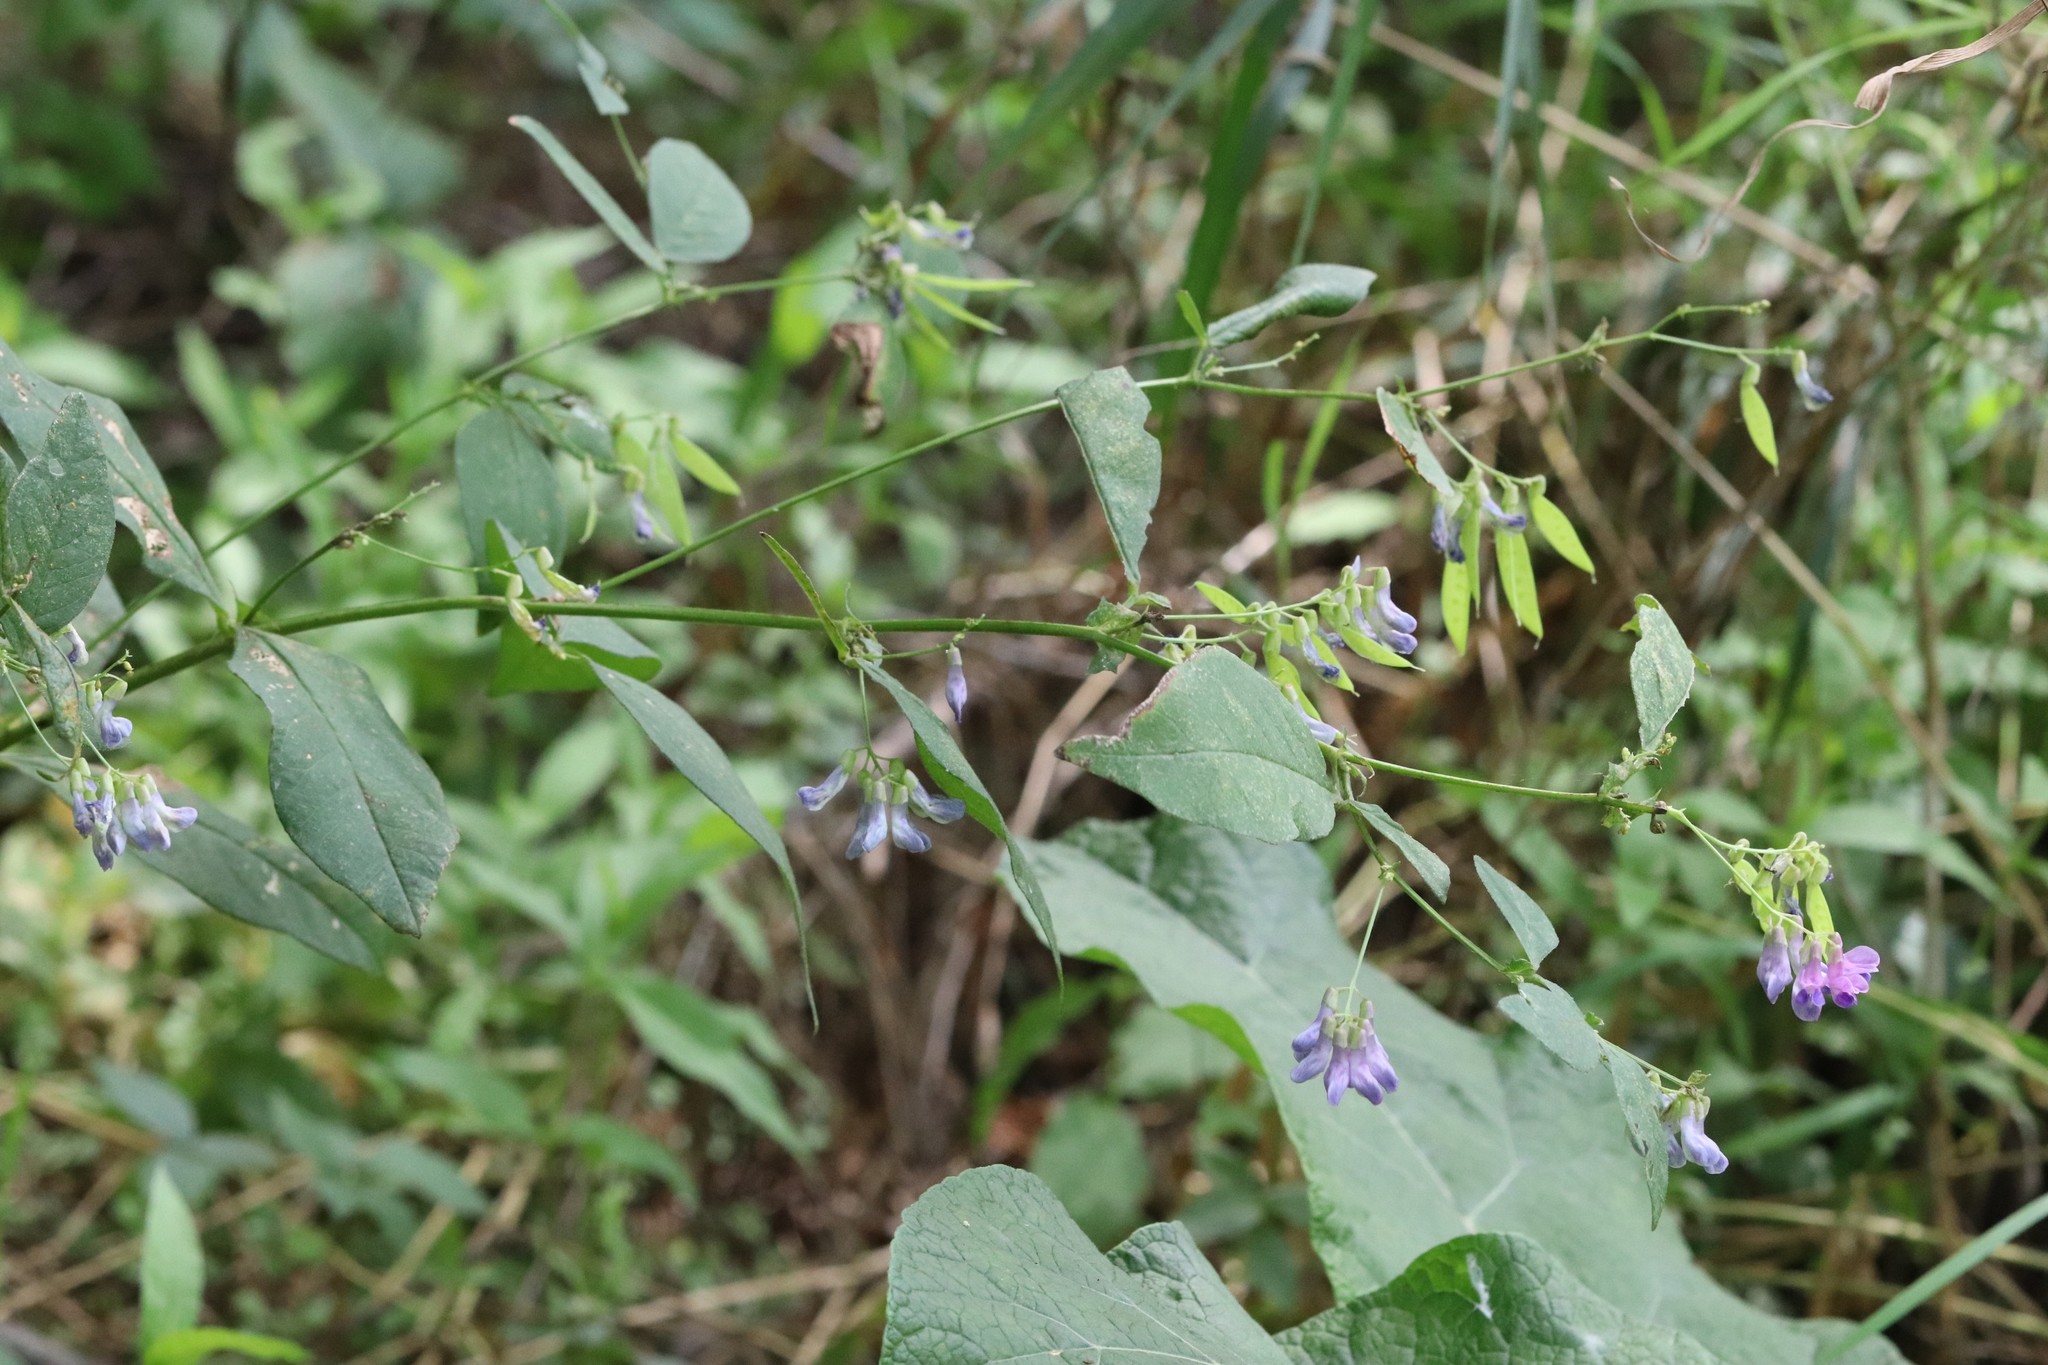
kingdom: Plantae
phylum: Tracheophyta
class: Magnoliopsida
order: Fabales
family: Fabaceae
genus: Vicia
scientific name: Vicia unijuga
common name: Two-leaf vetch
